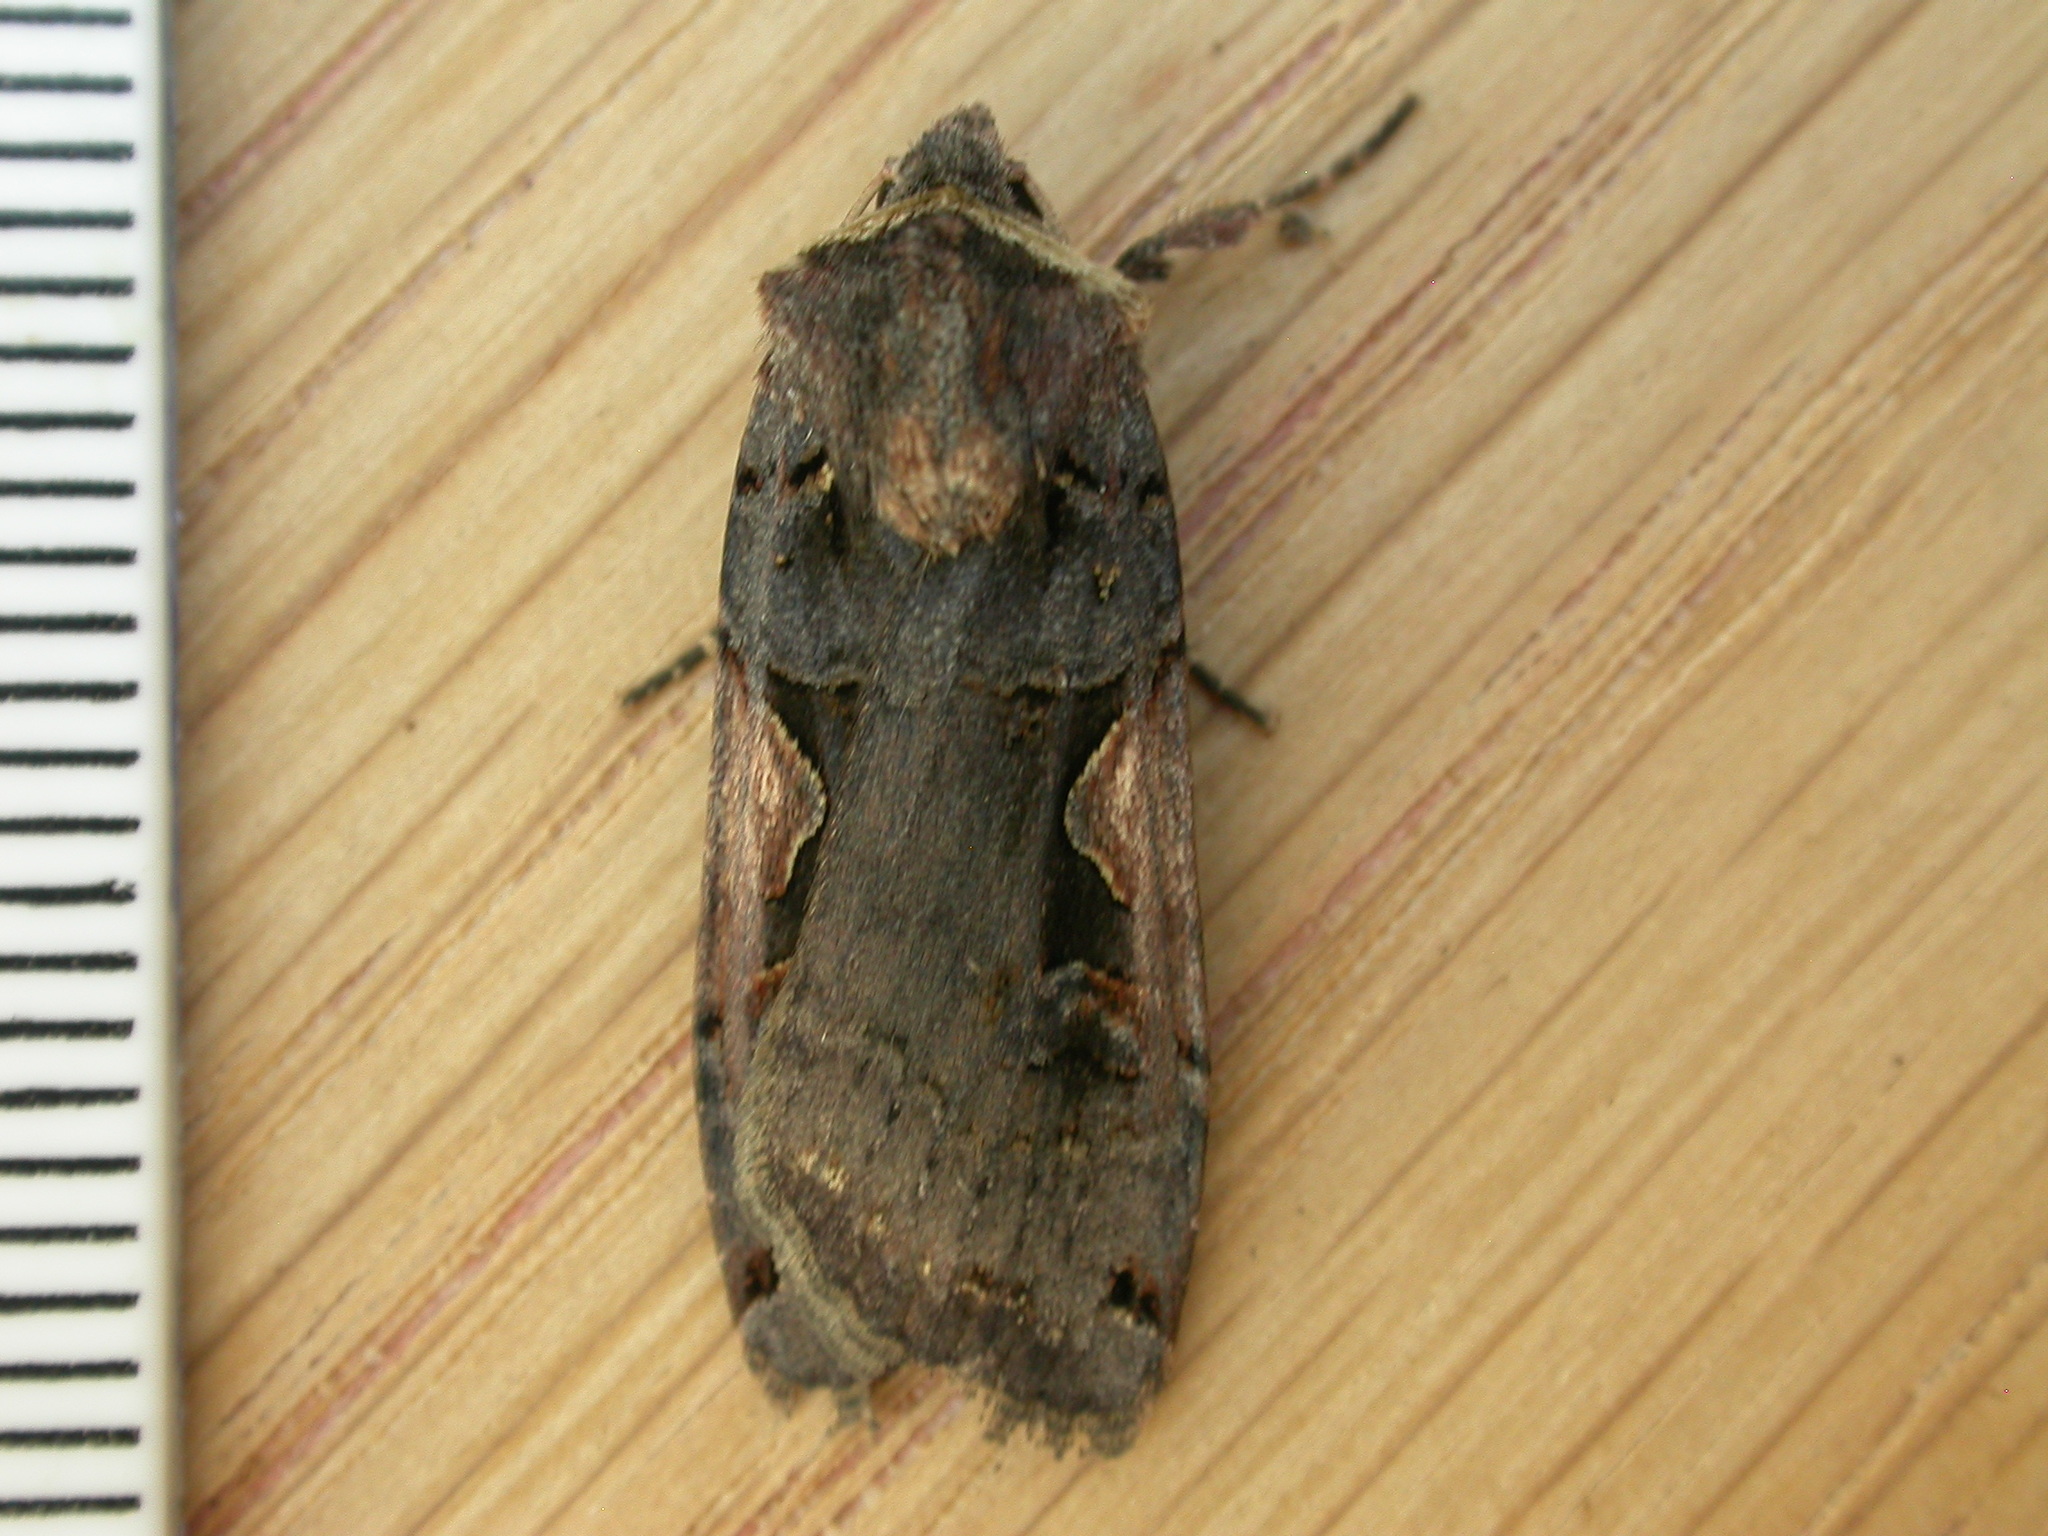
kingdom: Animalia
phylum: Arthropoda
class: Insecta
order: Lepidoptera
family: Noctuidae
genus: Xestia
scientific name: Xestia c-nigrum
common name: Setaceous hebrew character
